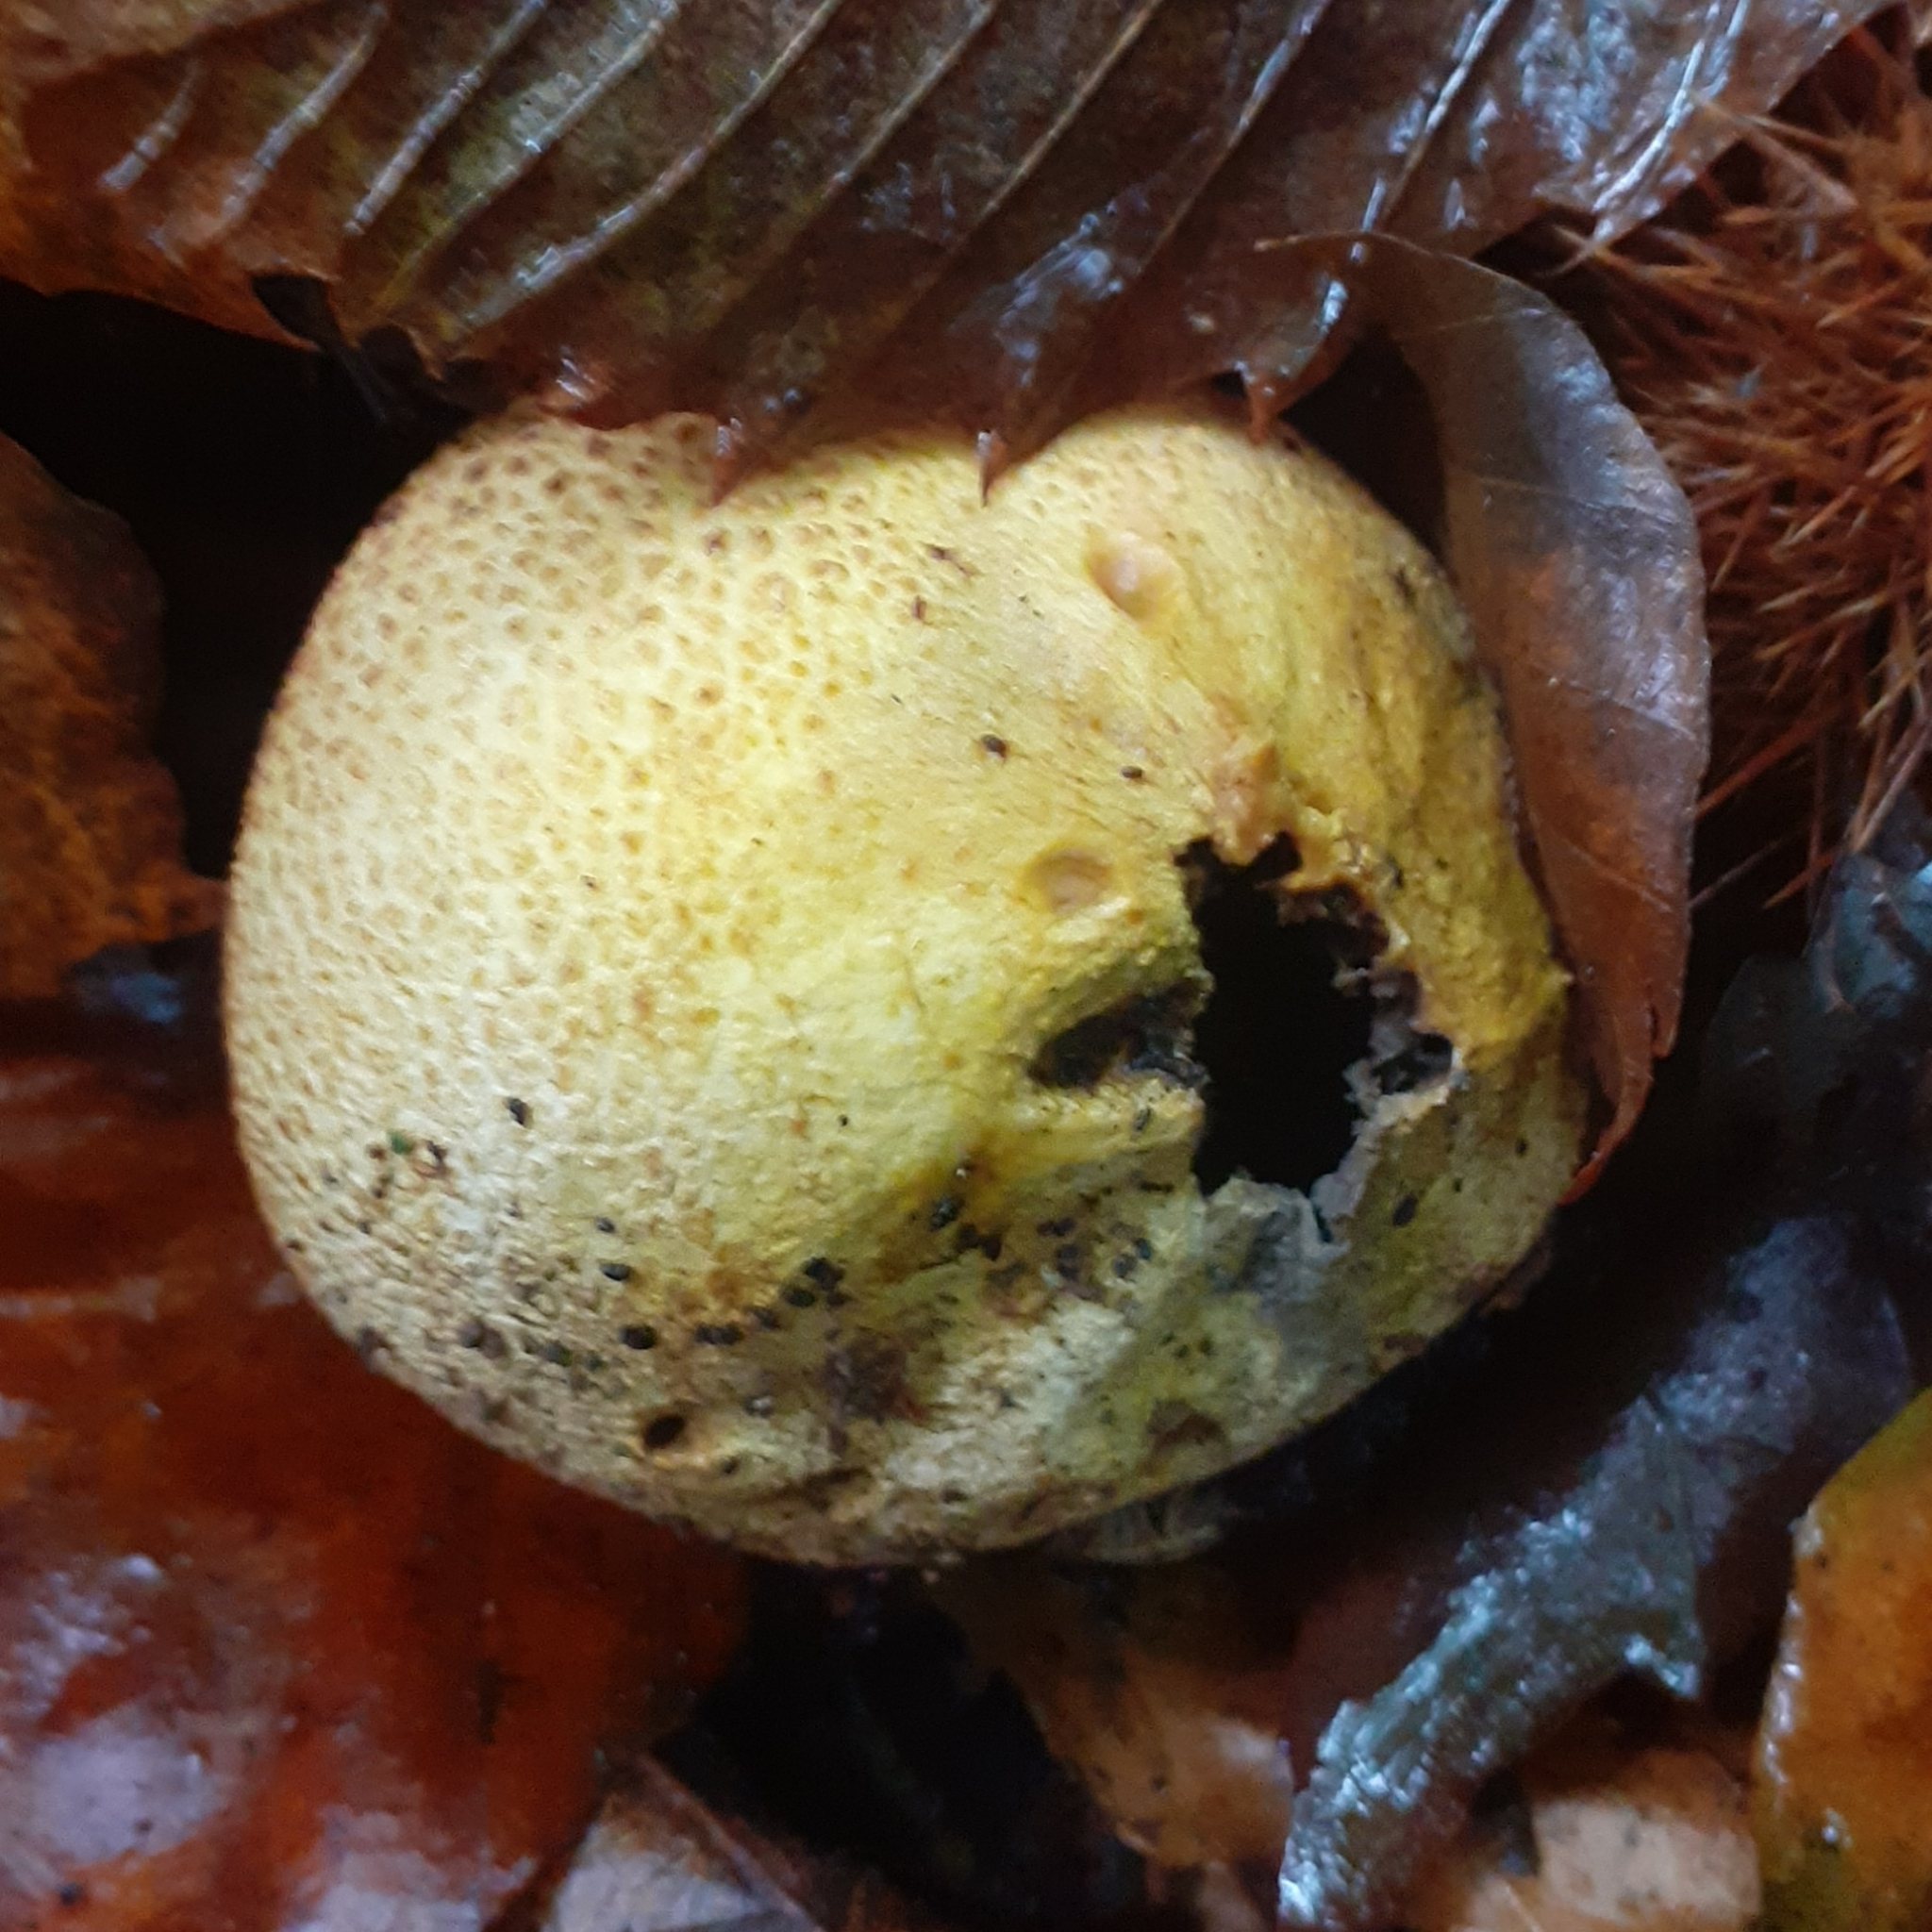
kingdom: Fungi
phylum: Basidiomycota
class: Agaricomycetes
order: Boletales
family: Sclerodermataceae
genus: Scleroderma
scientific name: Scleroderma citrinum
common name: Common earthball
